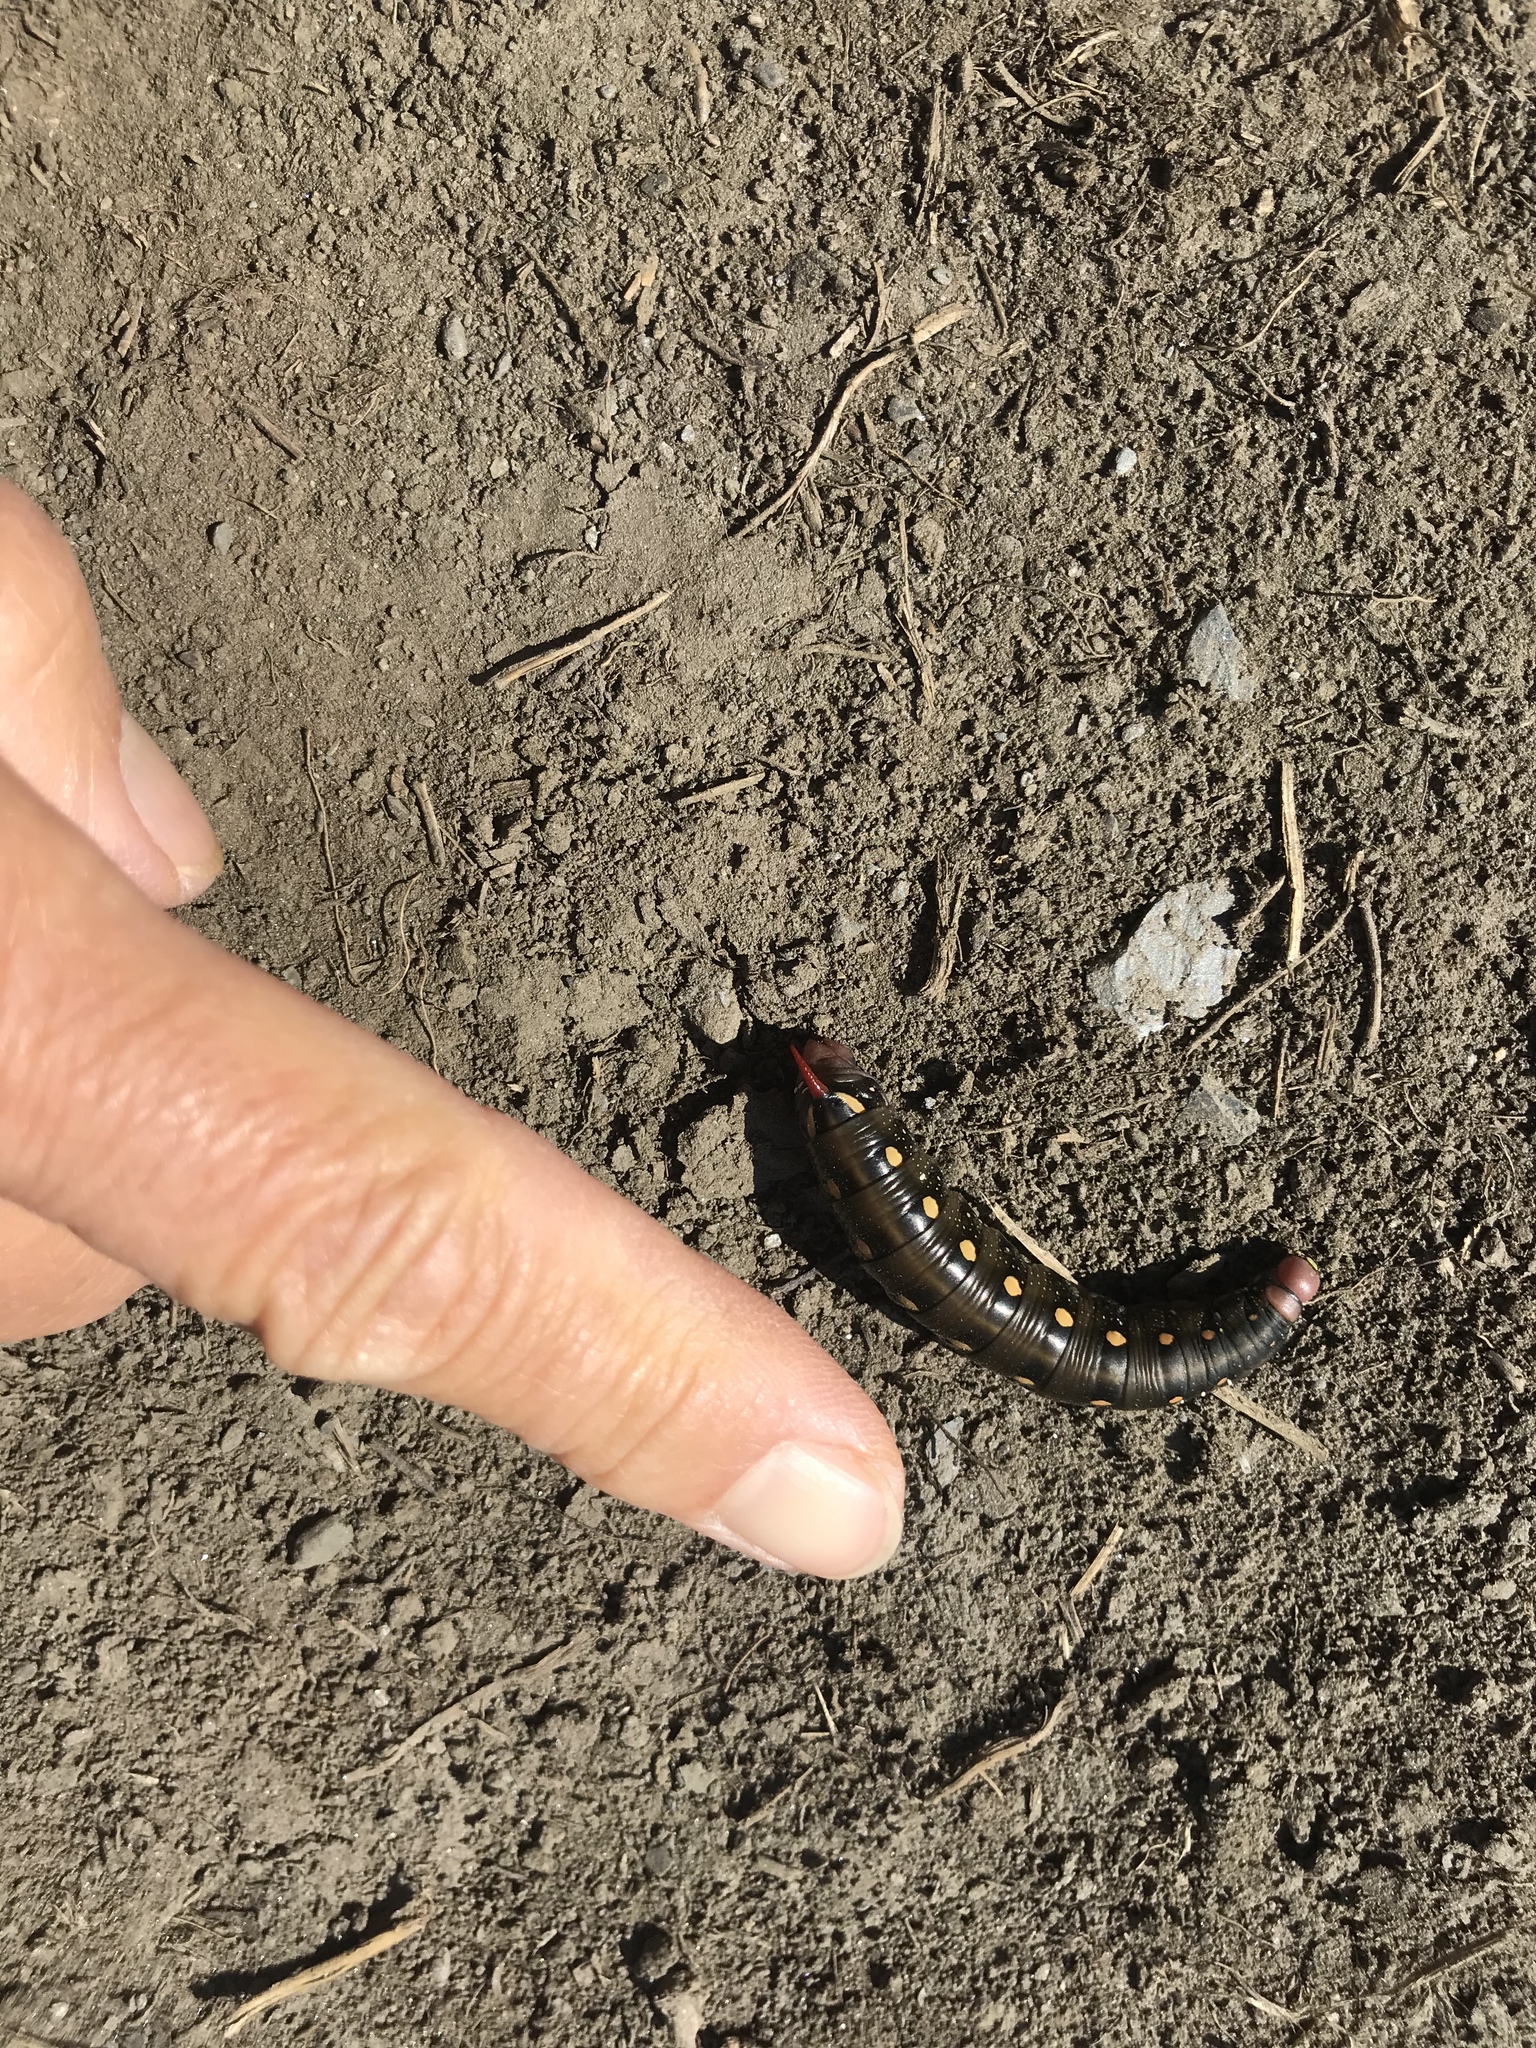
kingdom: Animalia
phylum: Arthropoda
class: Insecta
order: Lepidoptera
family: Sphingidae
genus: Hyles
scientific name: Hyles gallii
